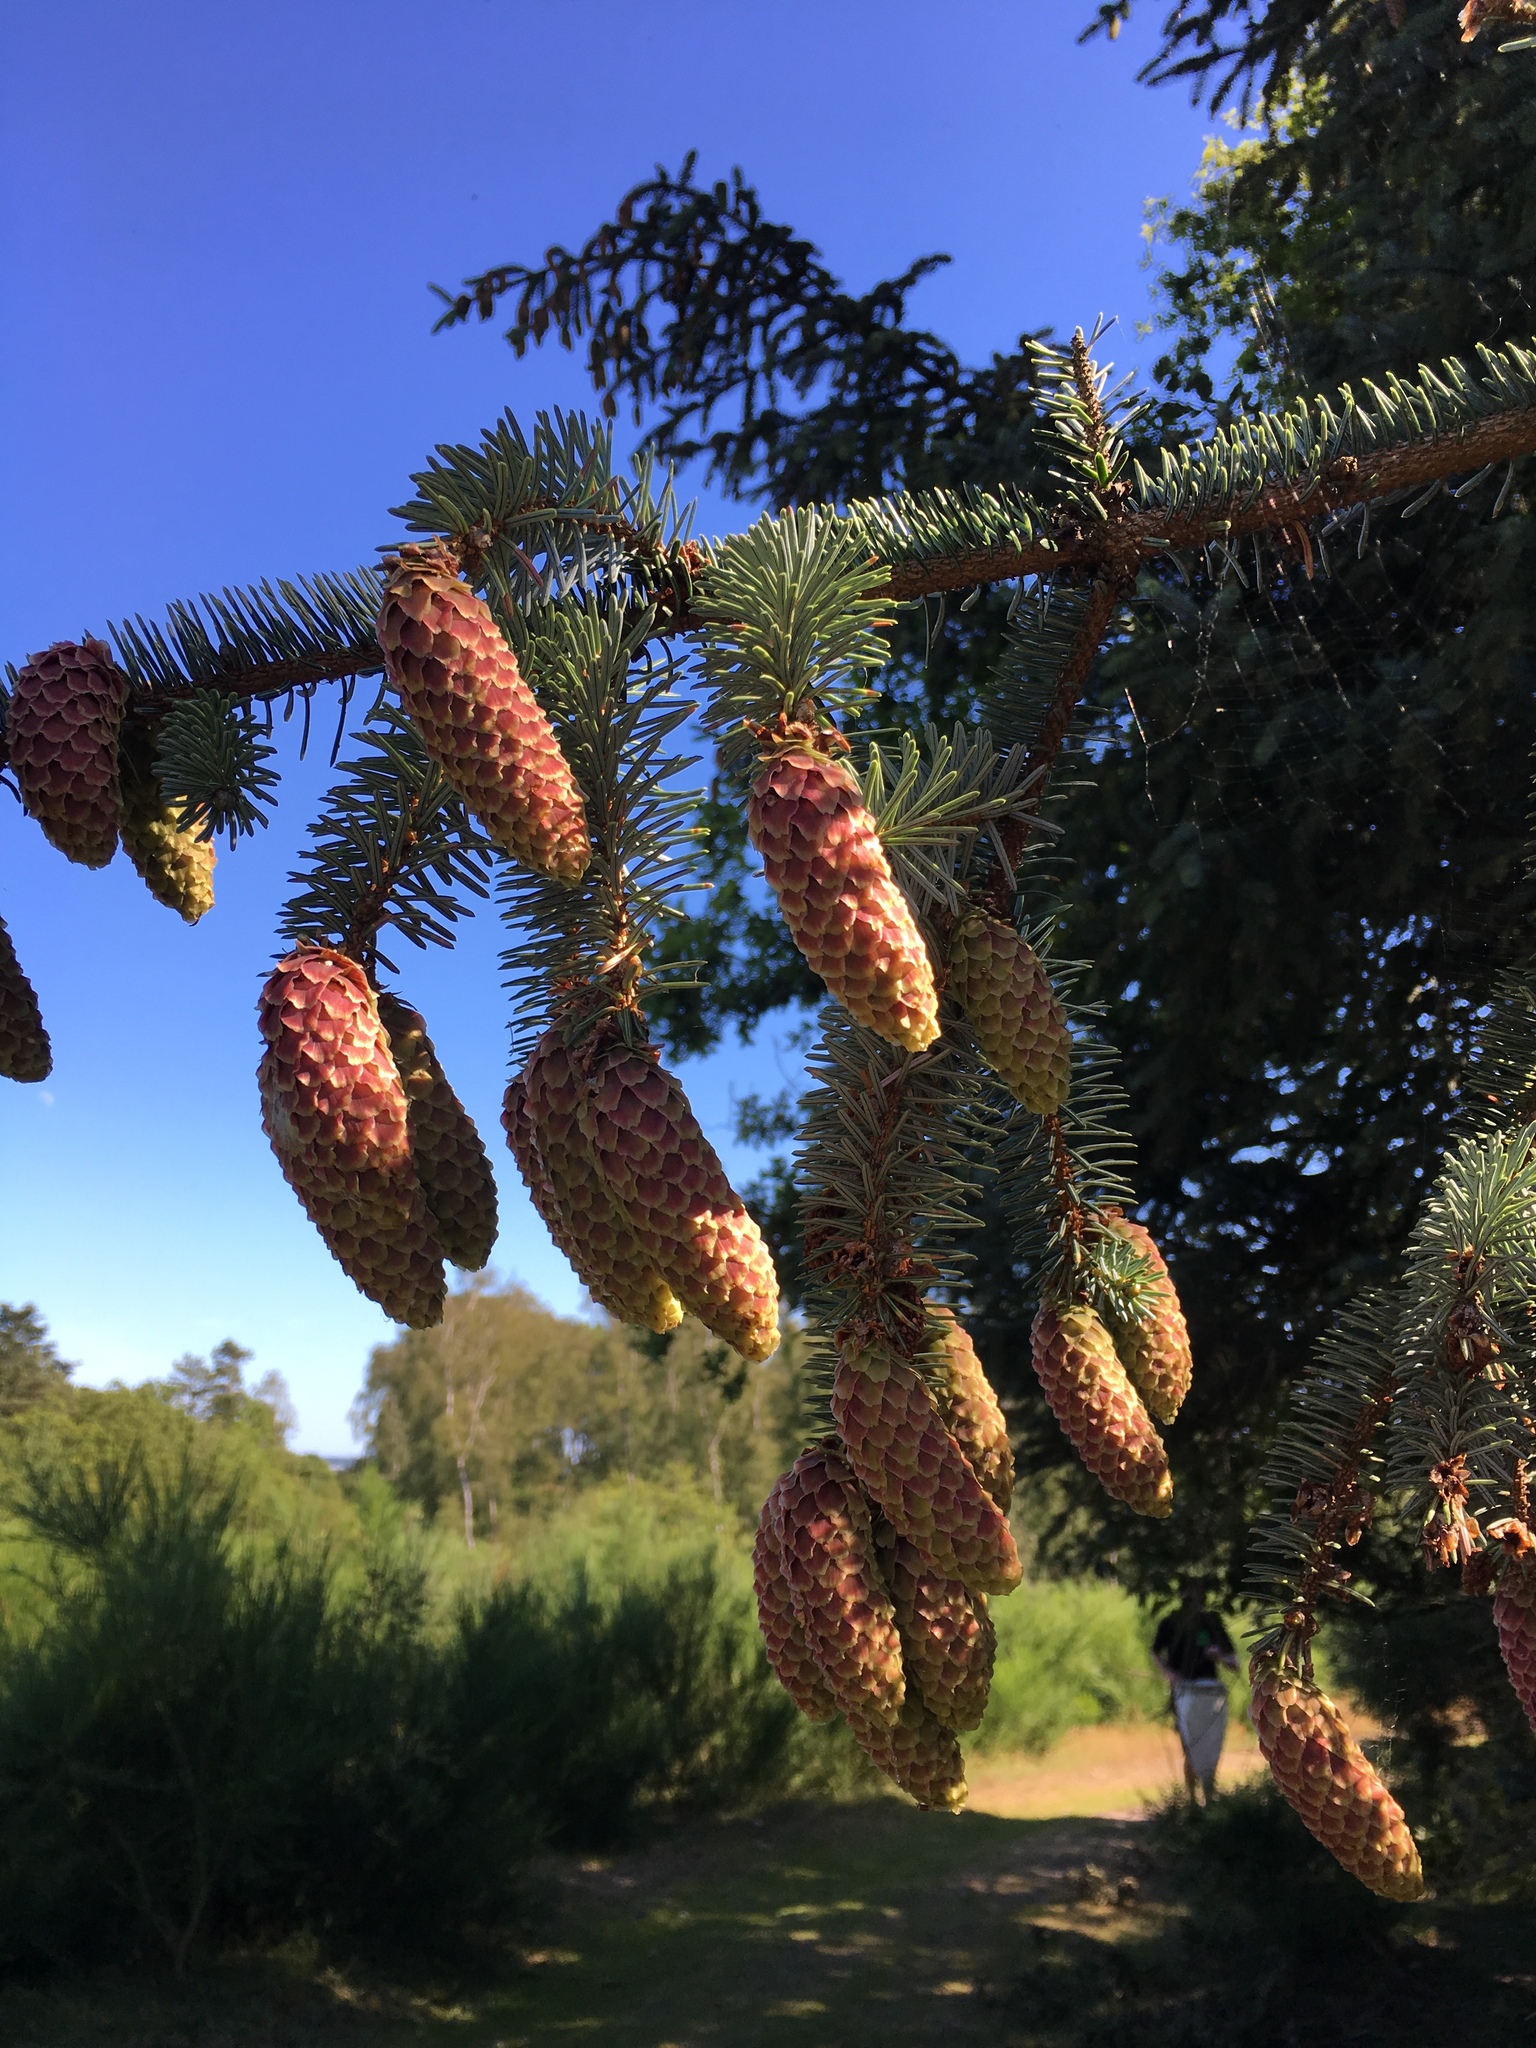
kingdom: Plantae
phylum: Tracheophyta
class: Pinopsida
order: Pinales
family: Pinaceae
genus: Picea
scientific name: Picea sitchensis
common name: Sitka spruce
